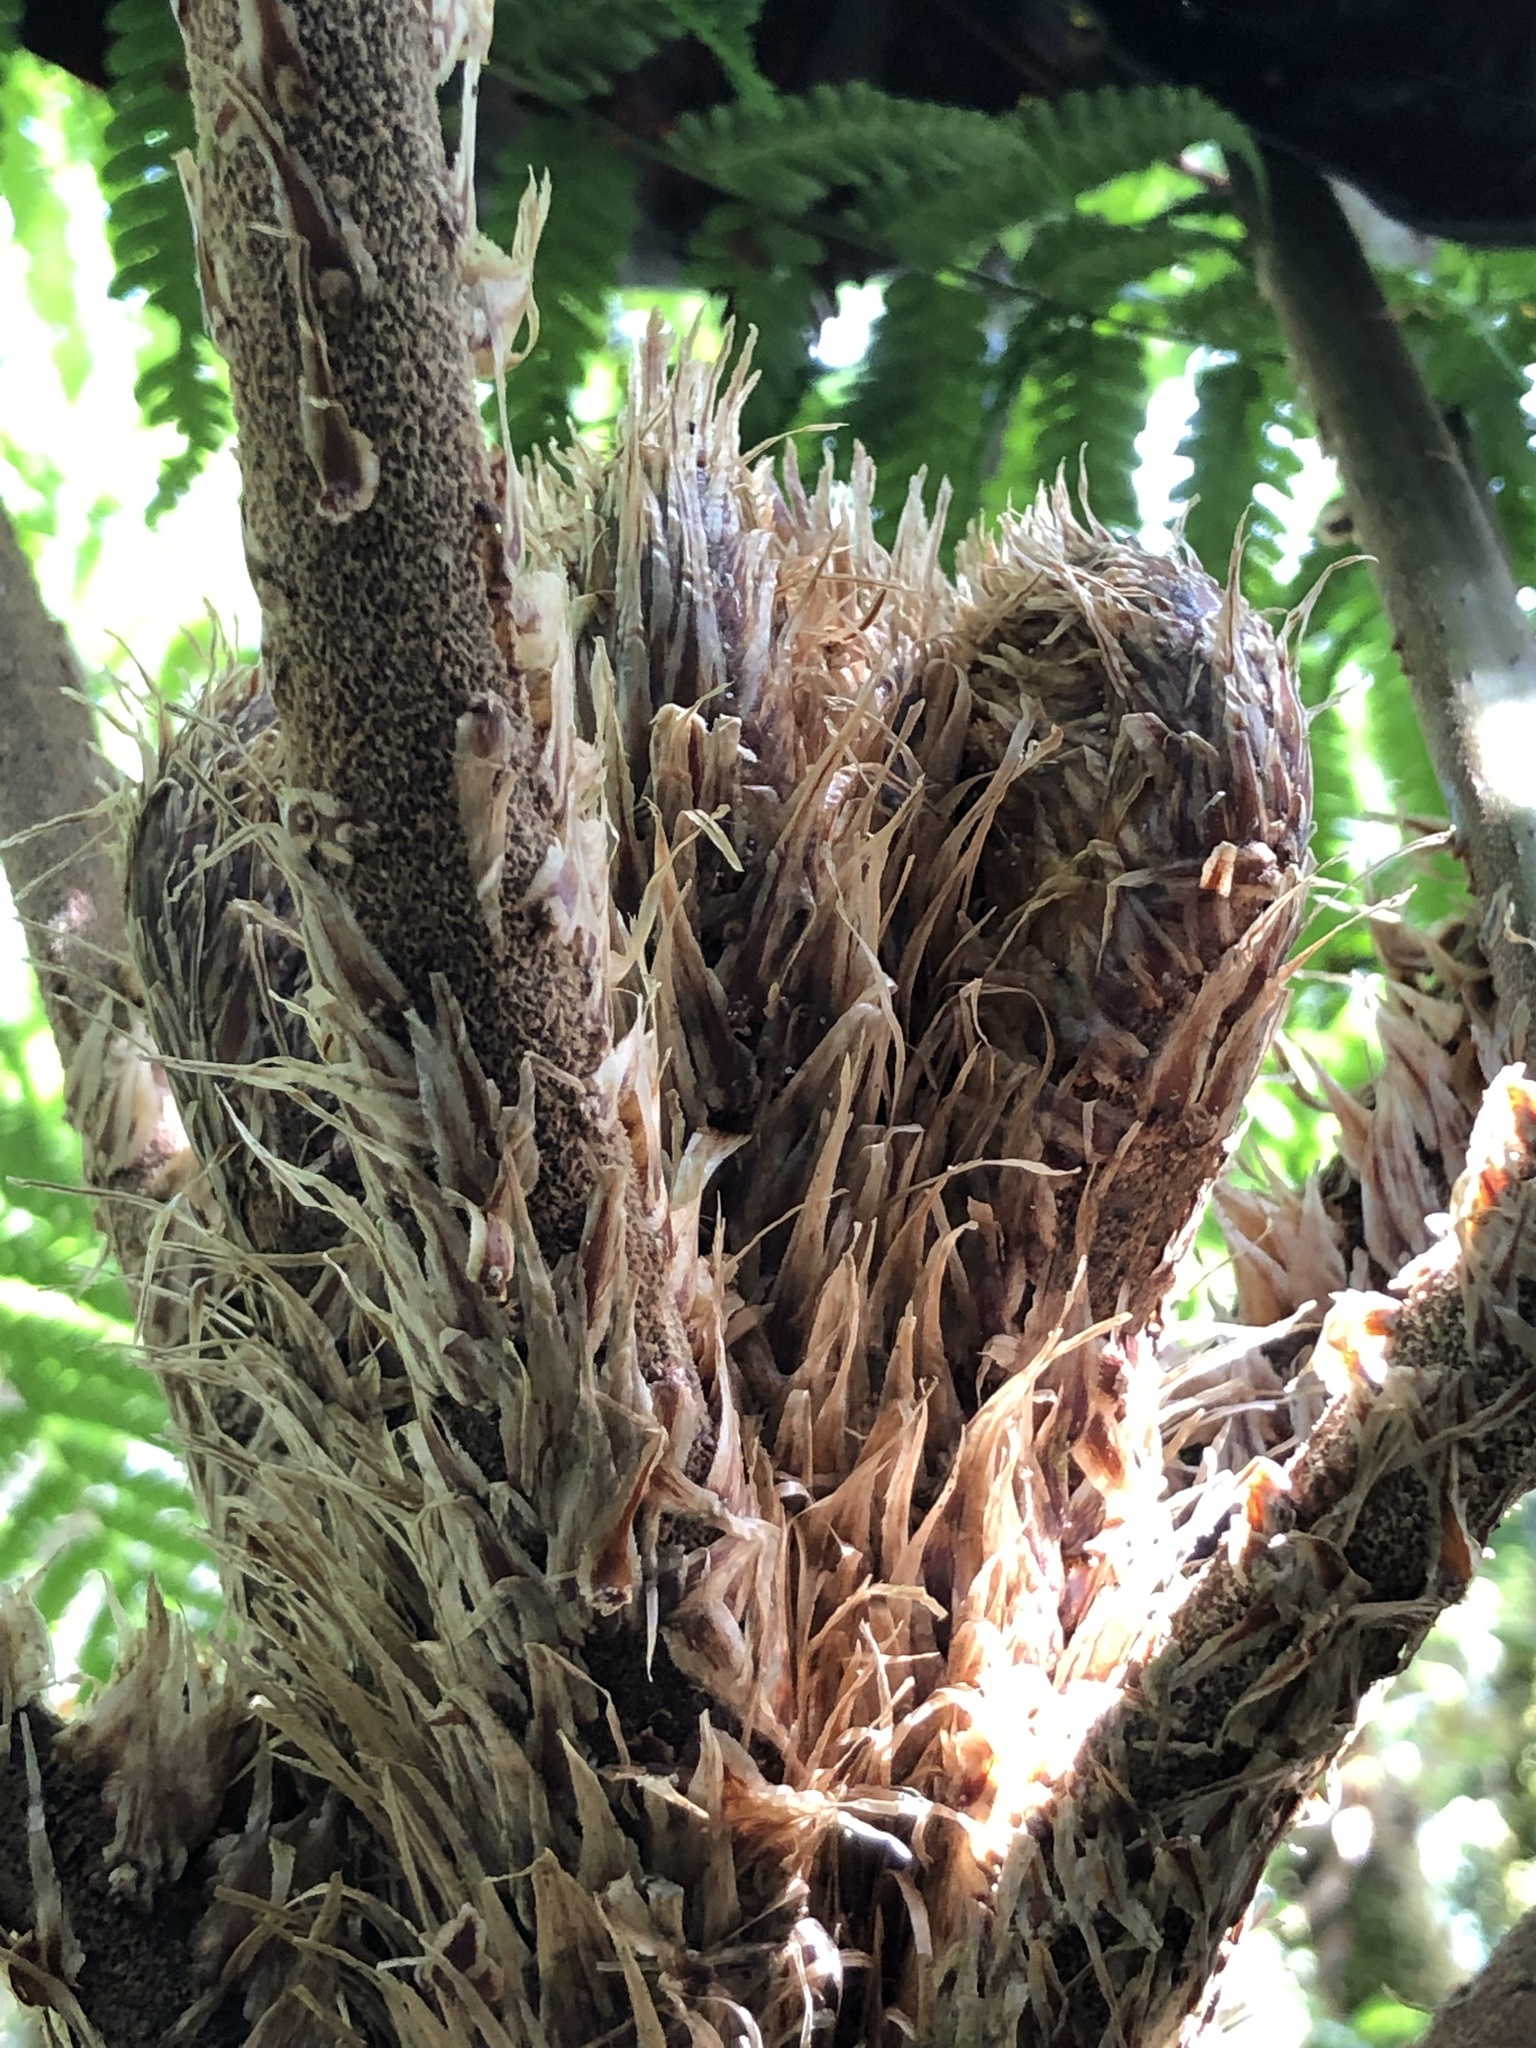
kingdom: Plantae
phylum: Tracheophyta
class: Polypodiopsida
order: Cyatheales
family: Cyatheaceae
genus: Cyathea
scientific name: Cyathea vilhelmii
